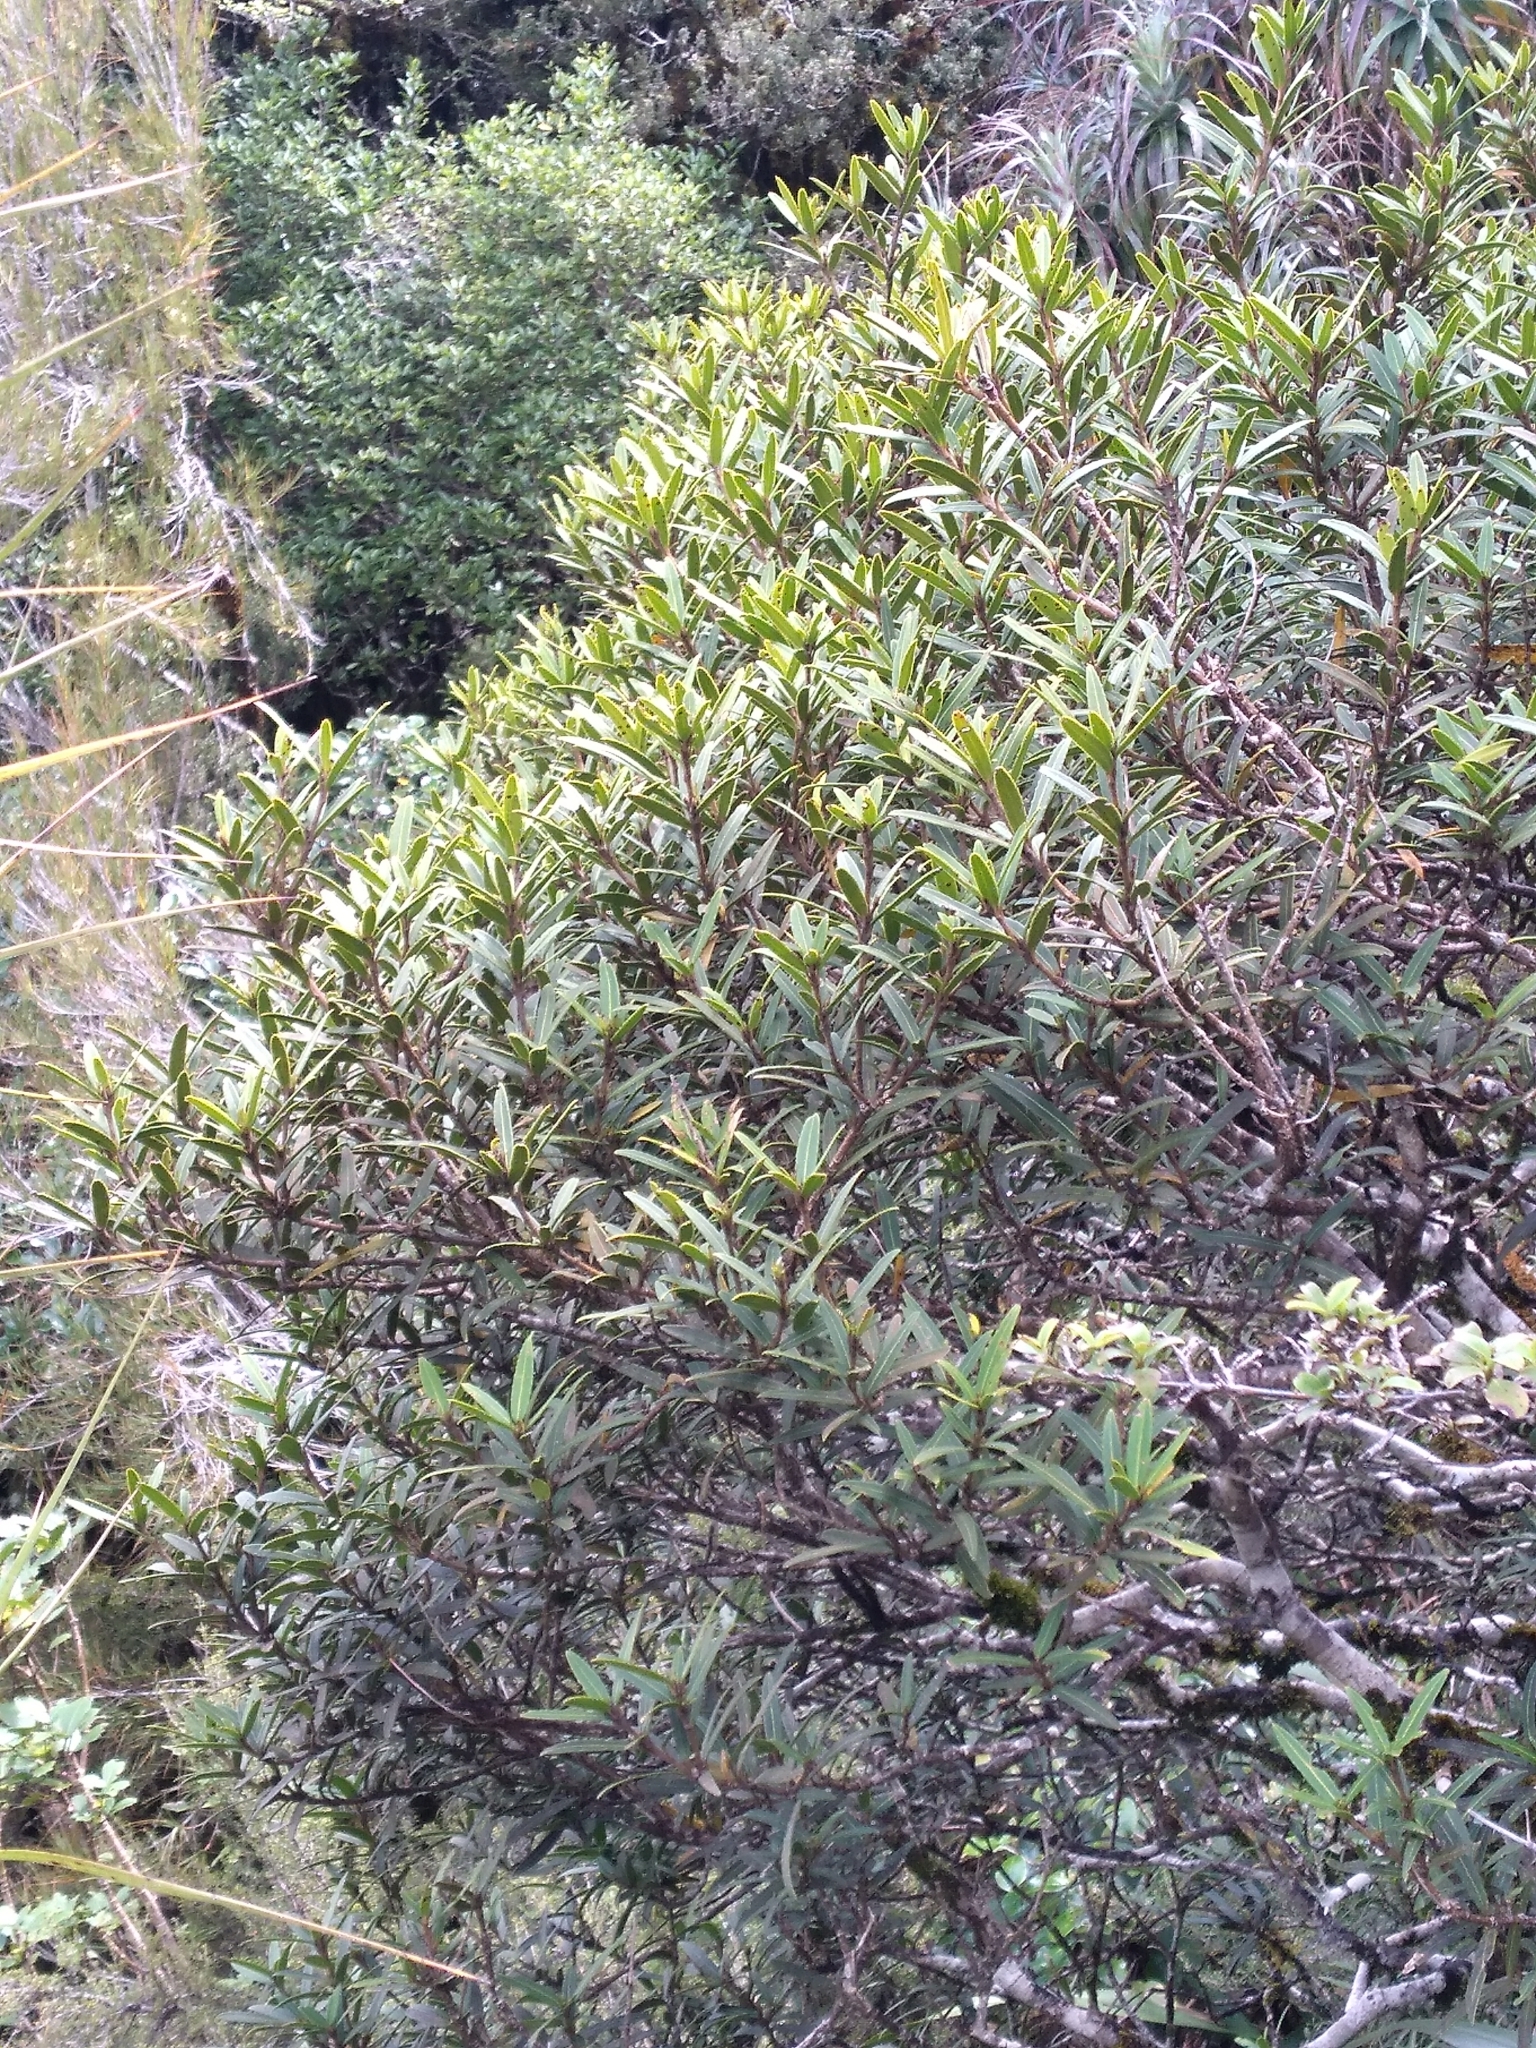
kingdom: Plantae
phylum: Tracheophyta
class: Magnoliopsida
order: Apiales
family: Araliaceae
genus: Pseudopanax
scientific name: Pseudopanax linearis
